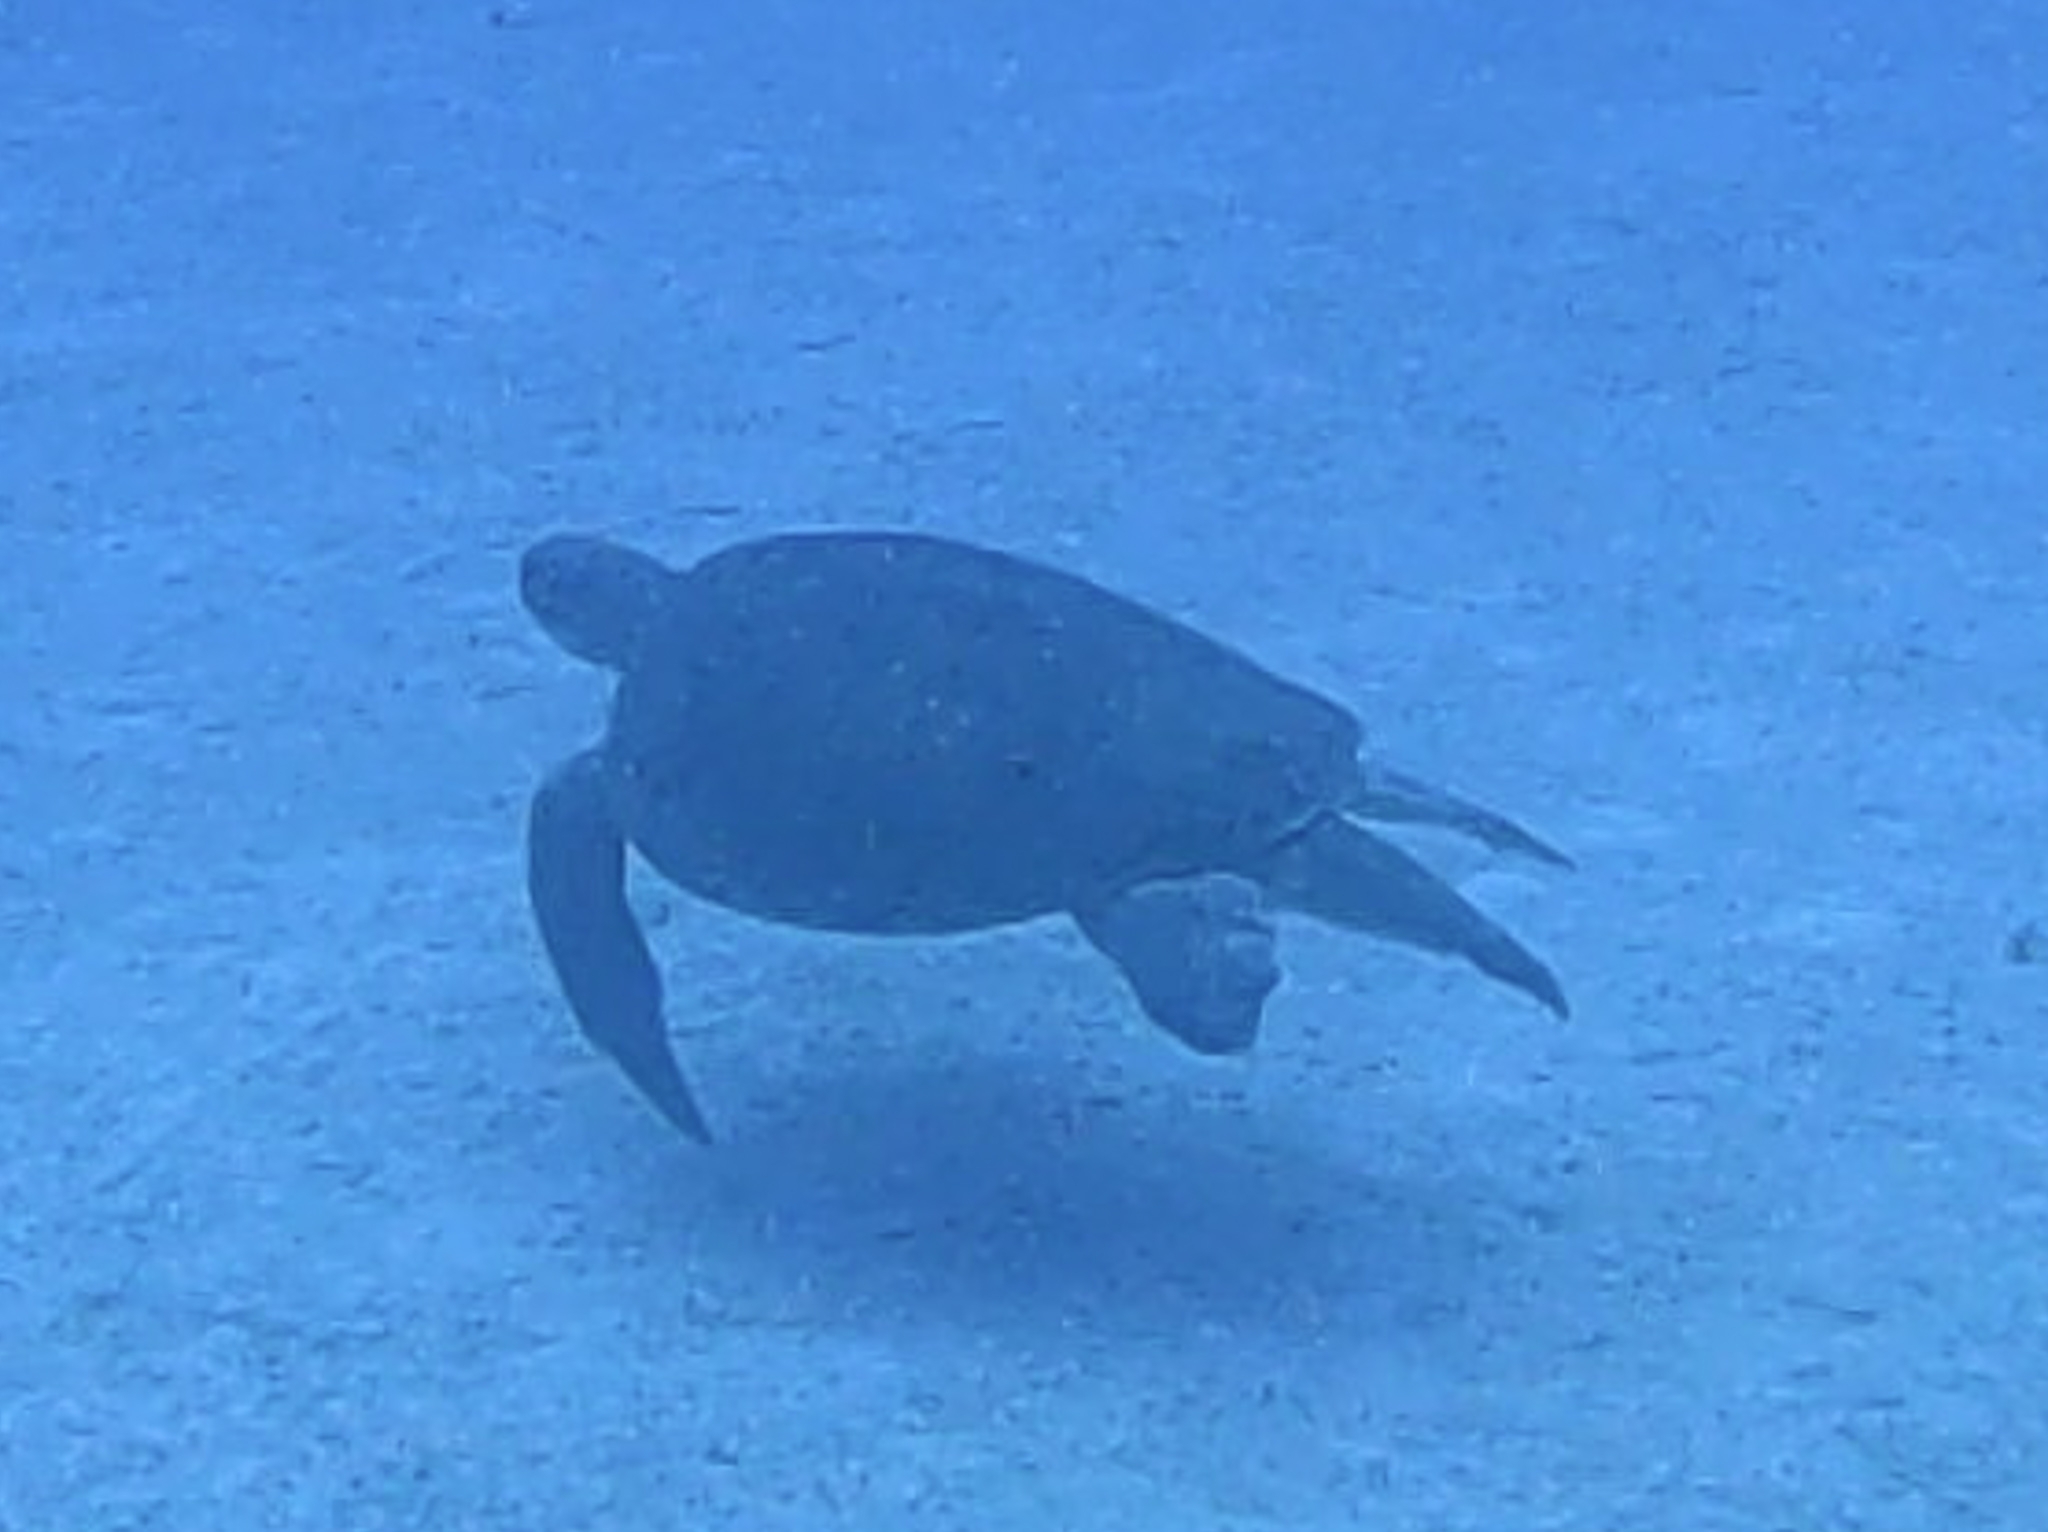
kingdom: Animalia
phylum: Chordata
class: Testudines
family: Cheloniidae
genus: Chelonia
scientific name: Chelonia mydas
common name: Green turtle
